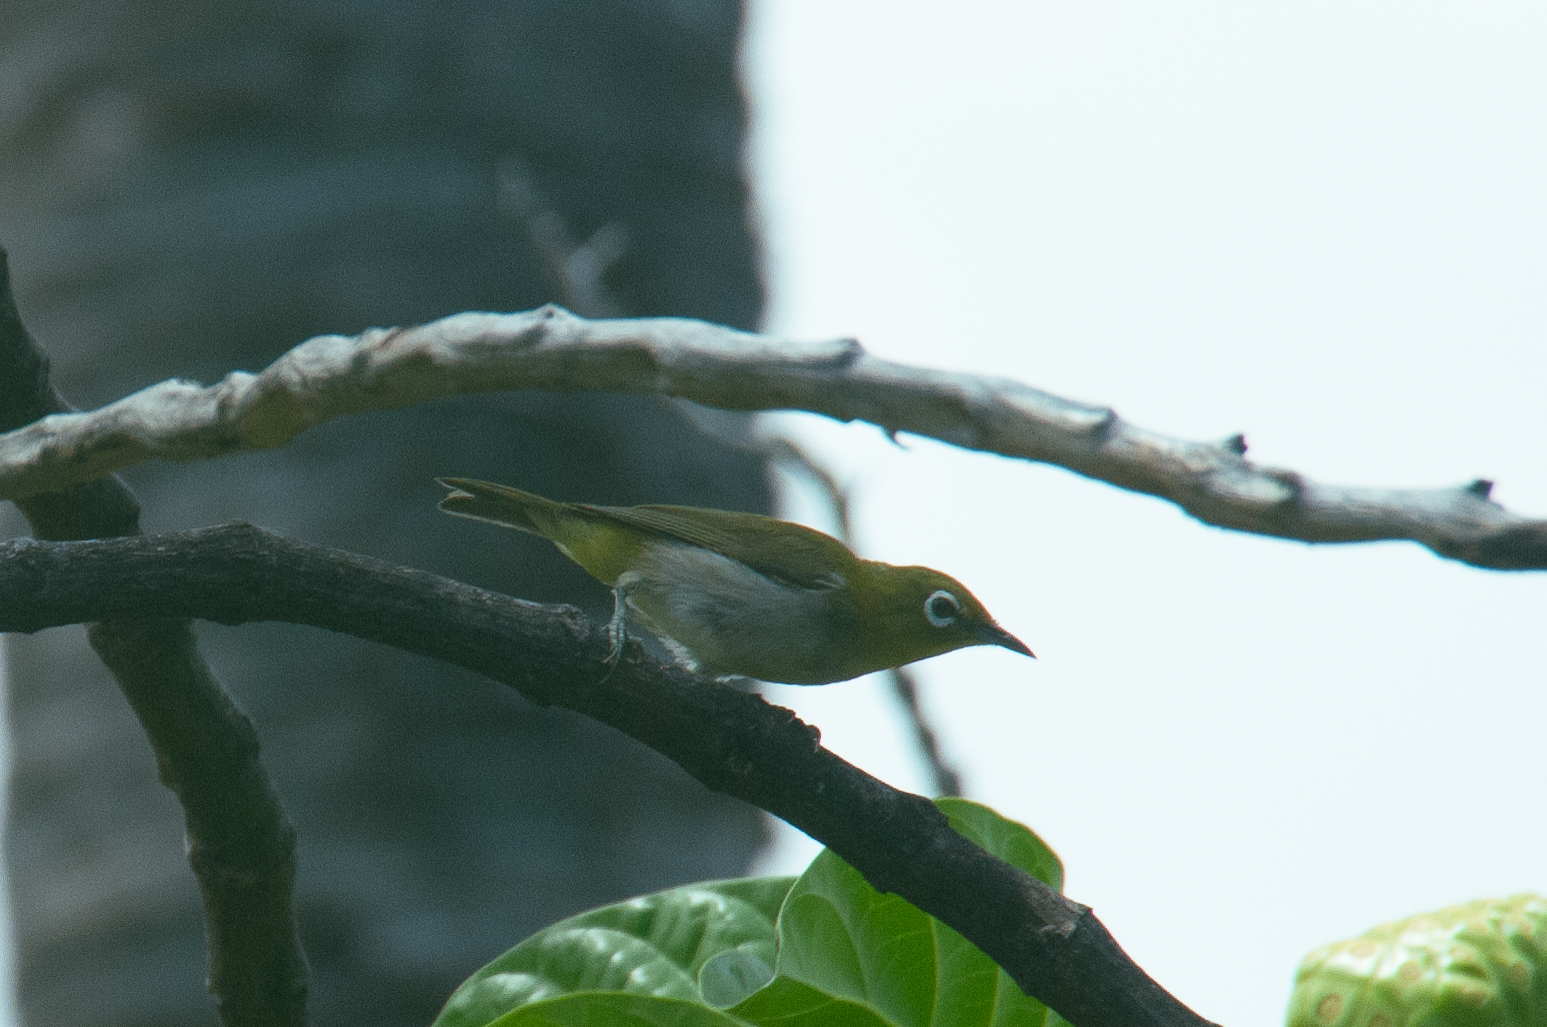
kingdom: Animalia
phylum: Chordata
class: Aves
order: Passeriformes
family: Zosteropidae
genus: Zosterops
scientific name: Zosterops japonicus
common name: Japanese white-eye
